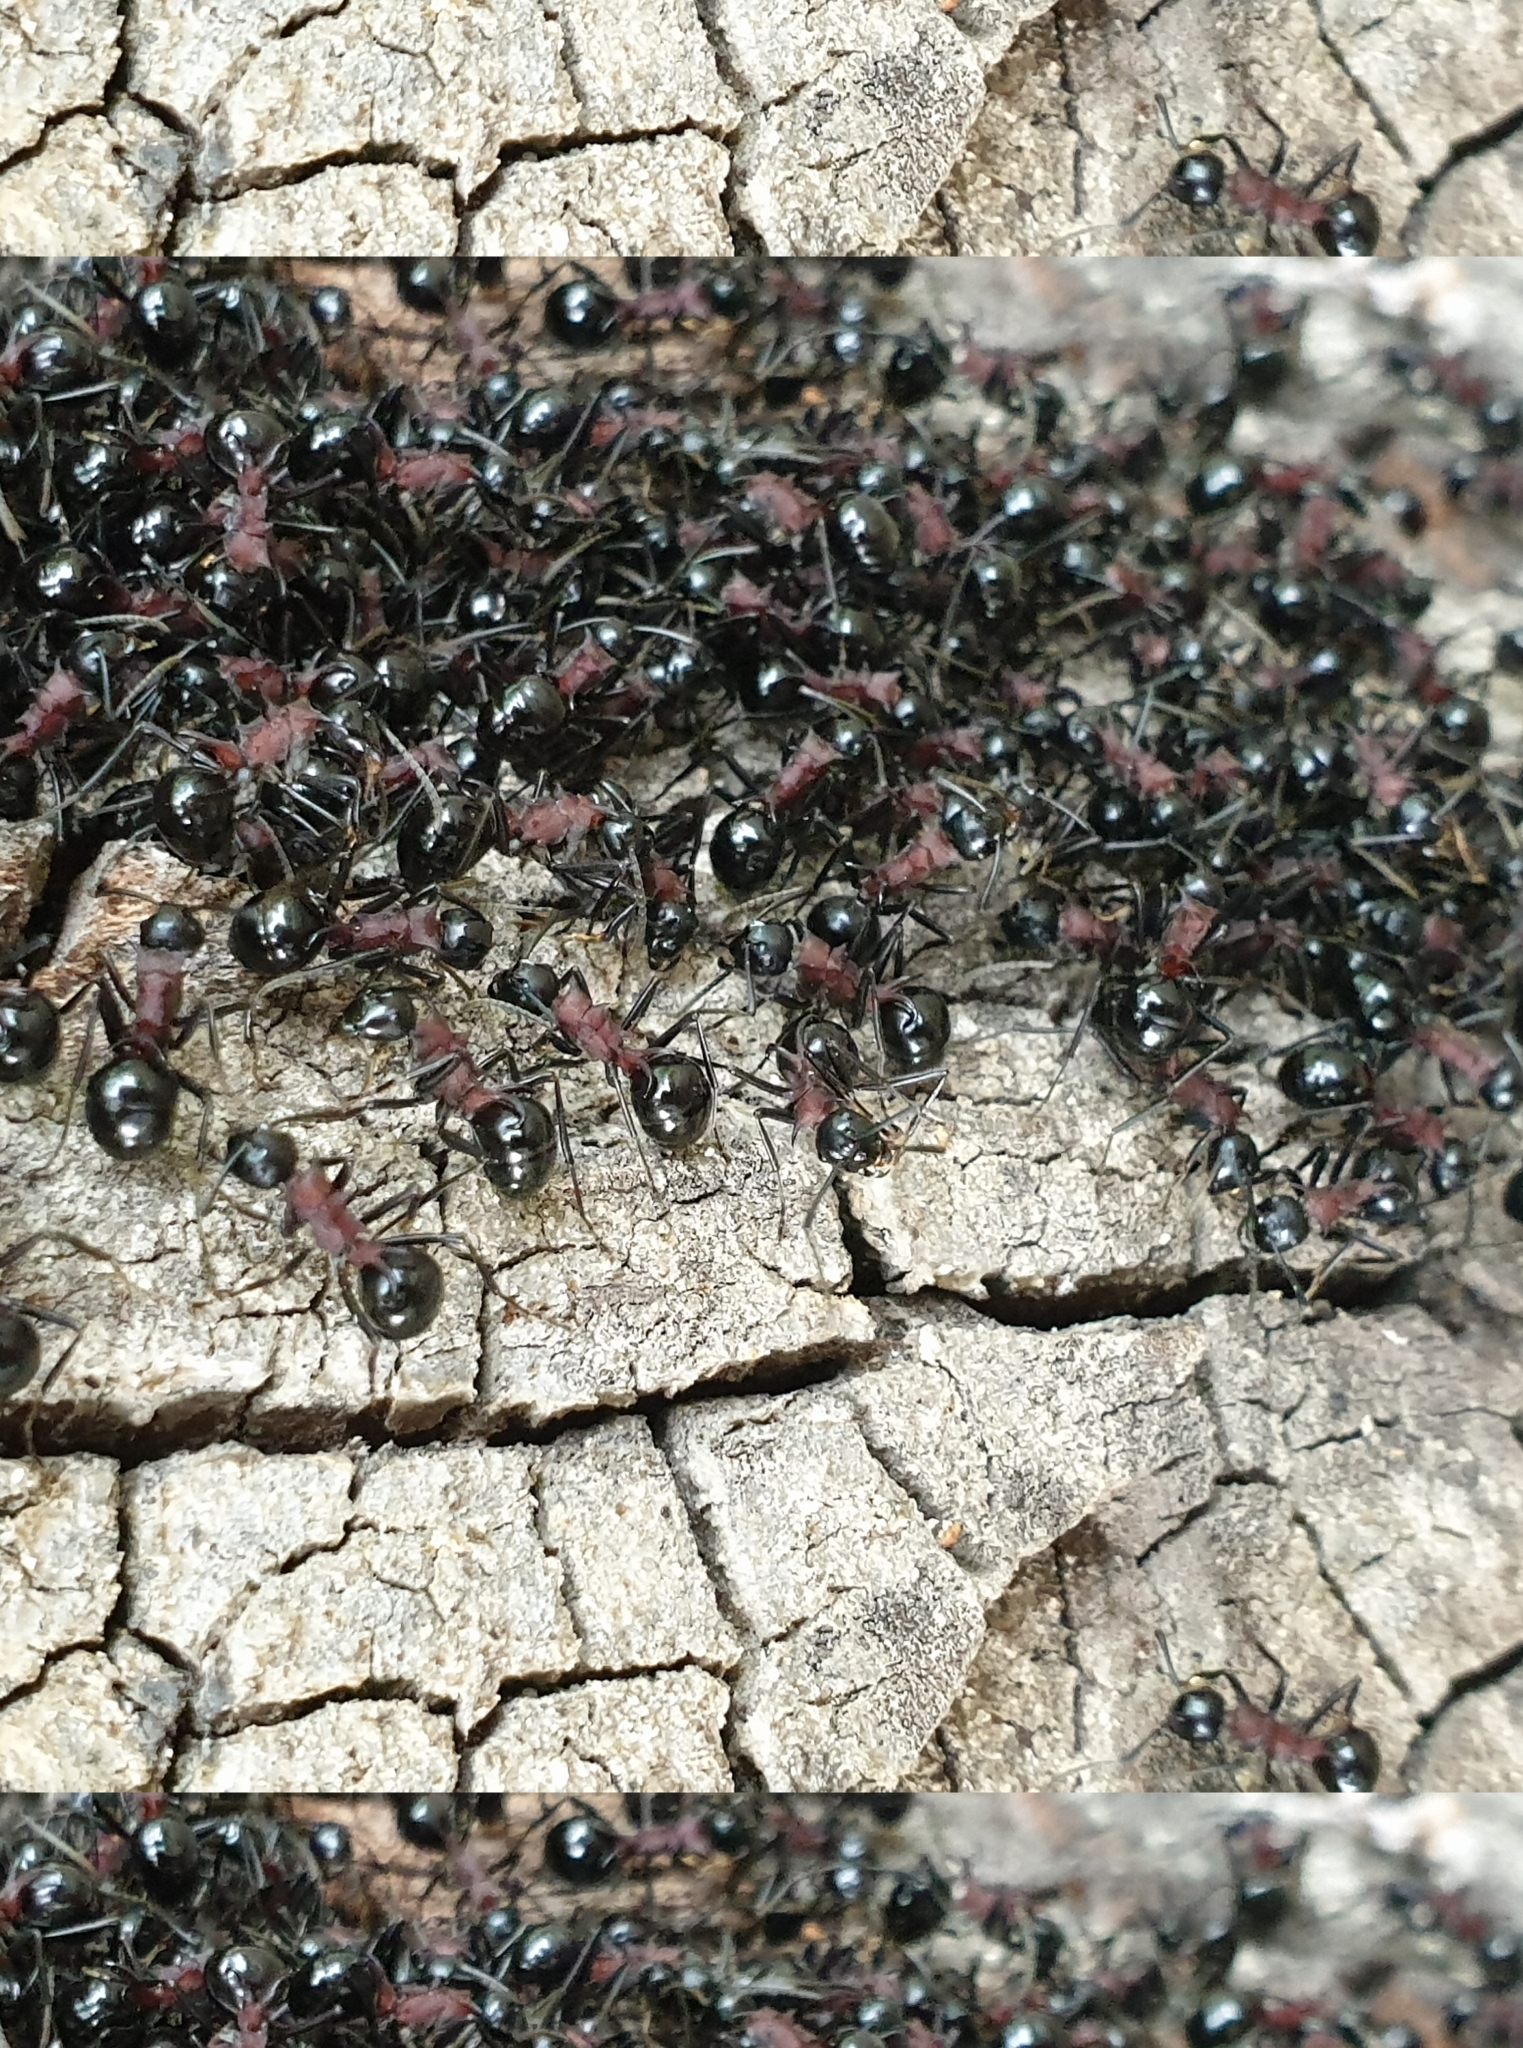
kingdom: Animalia
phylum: Arthropoda
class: Insecta
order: Hymenoptera
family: Formicidae
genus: Polyrhachis
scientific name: Polyrhachis lamellidens
